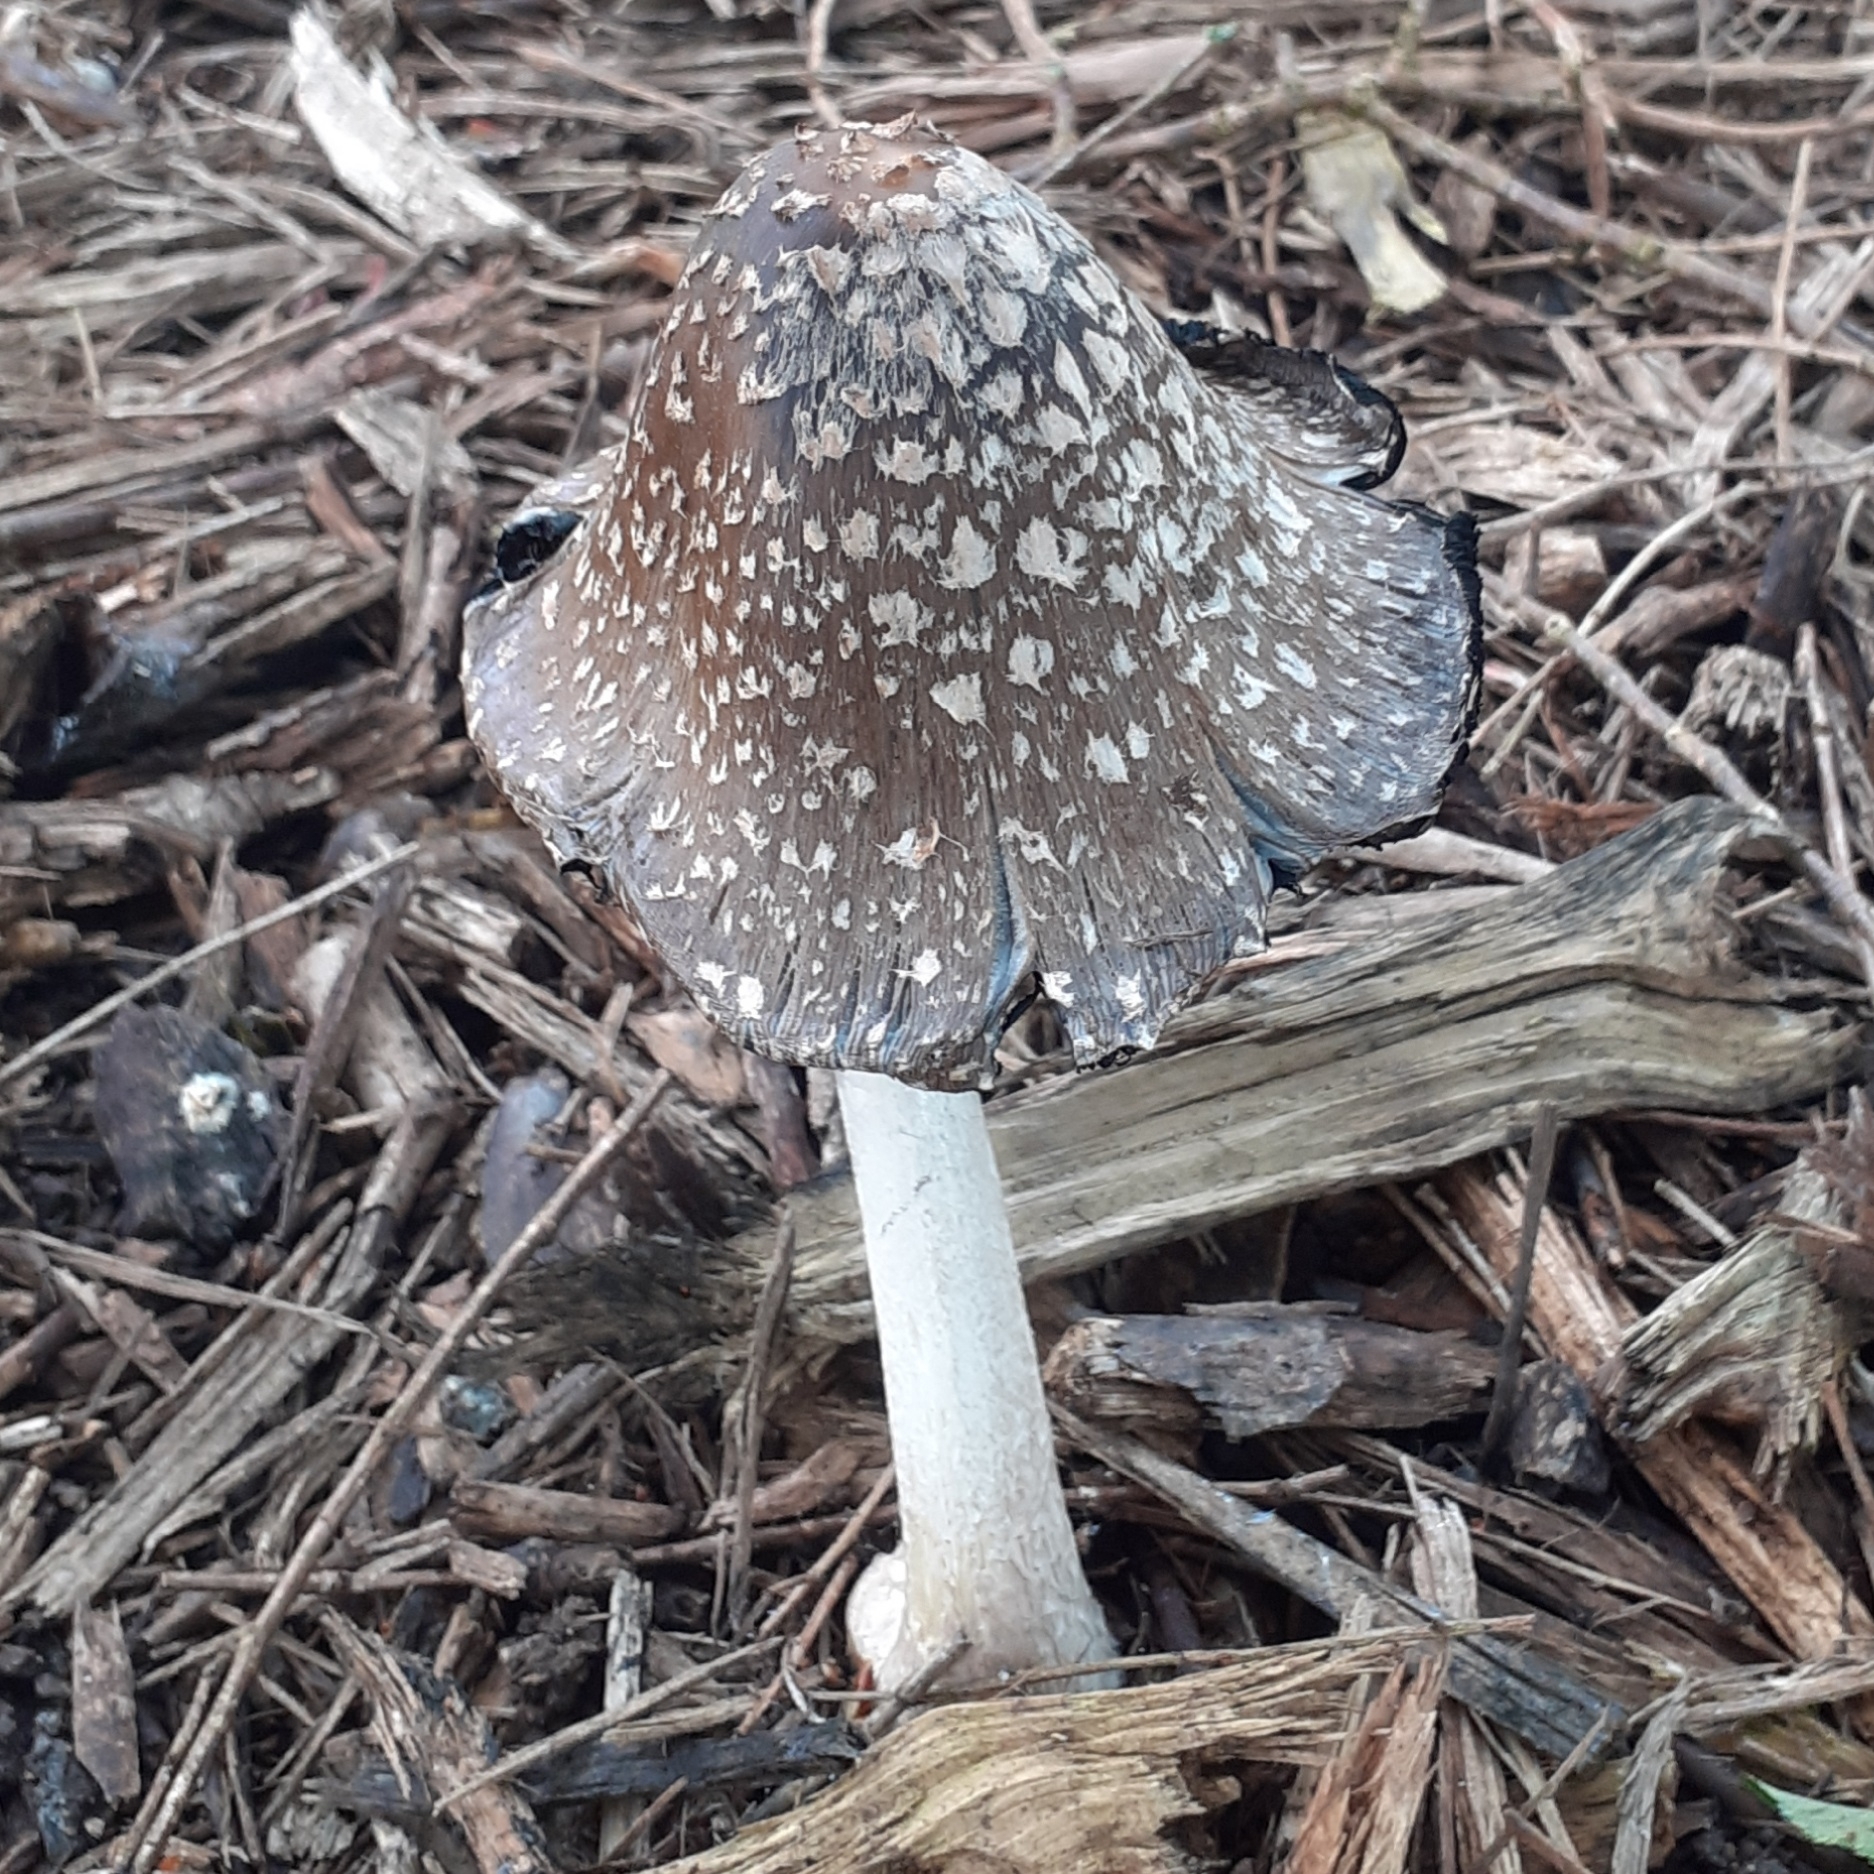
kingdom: Fungi
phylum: Basidiomycota
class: Agaricomycetes
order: Agaricales
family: Psathyrellaceae
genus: Coprinopsis
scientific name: Coprinopsis picacea
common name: Magpie inkcap
